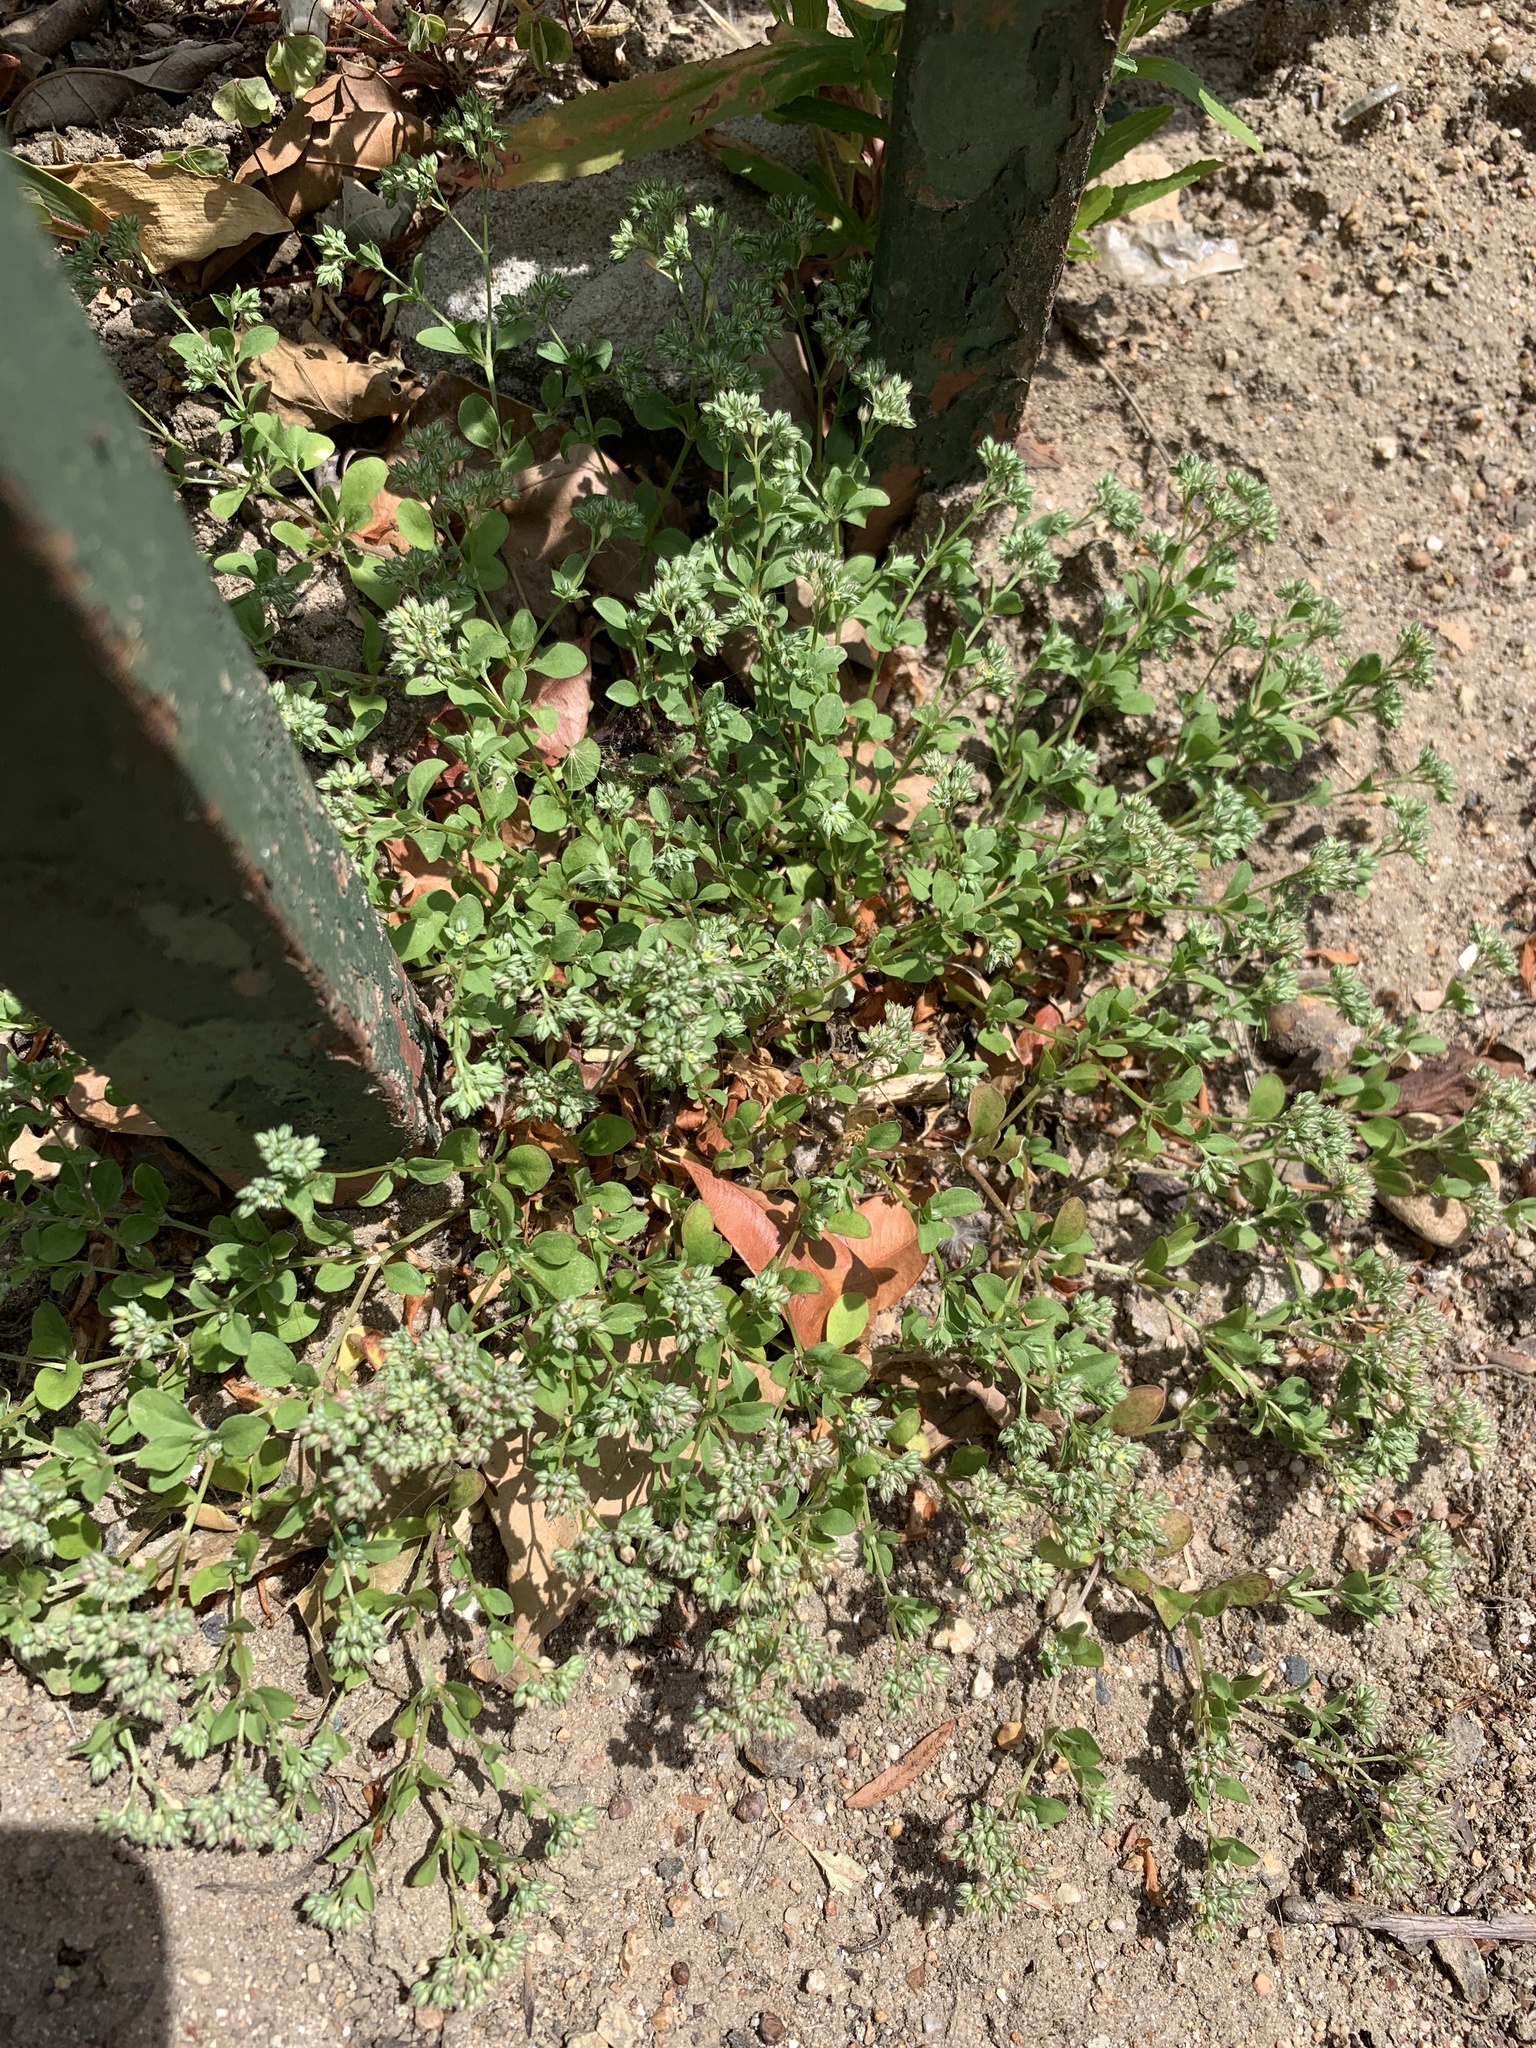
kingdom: Plantae
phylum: Tracheophyta
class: Magnoliopsida
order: Caryophyllales
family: Caryophyllaceae
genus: Polycarpon
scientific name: Polycarpon tetraphyllum
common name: Four-leaved all-seed
